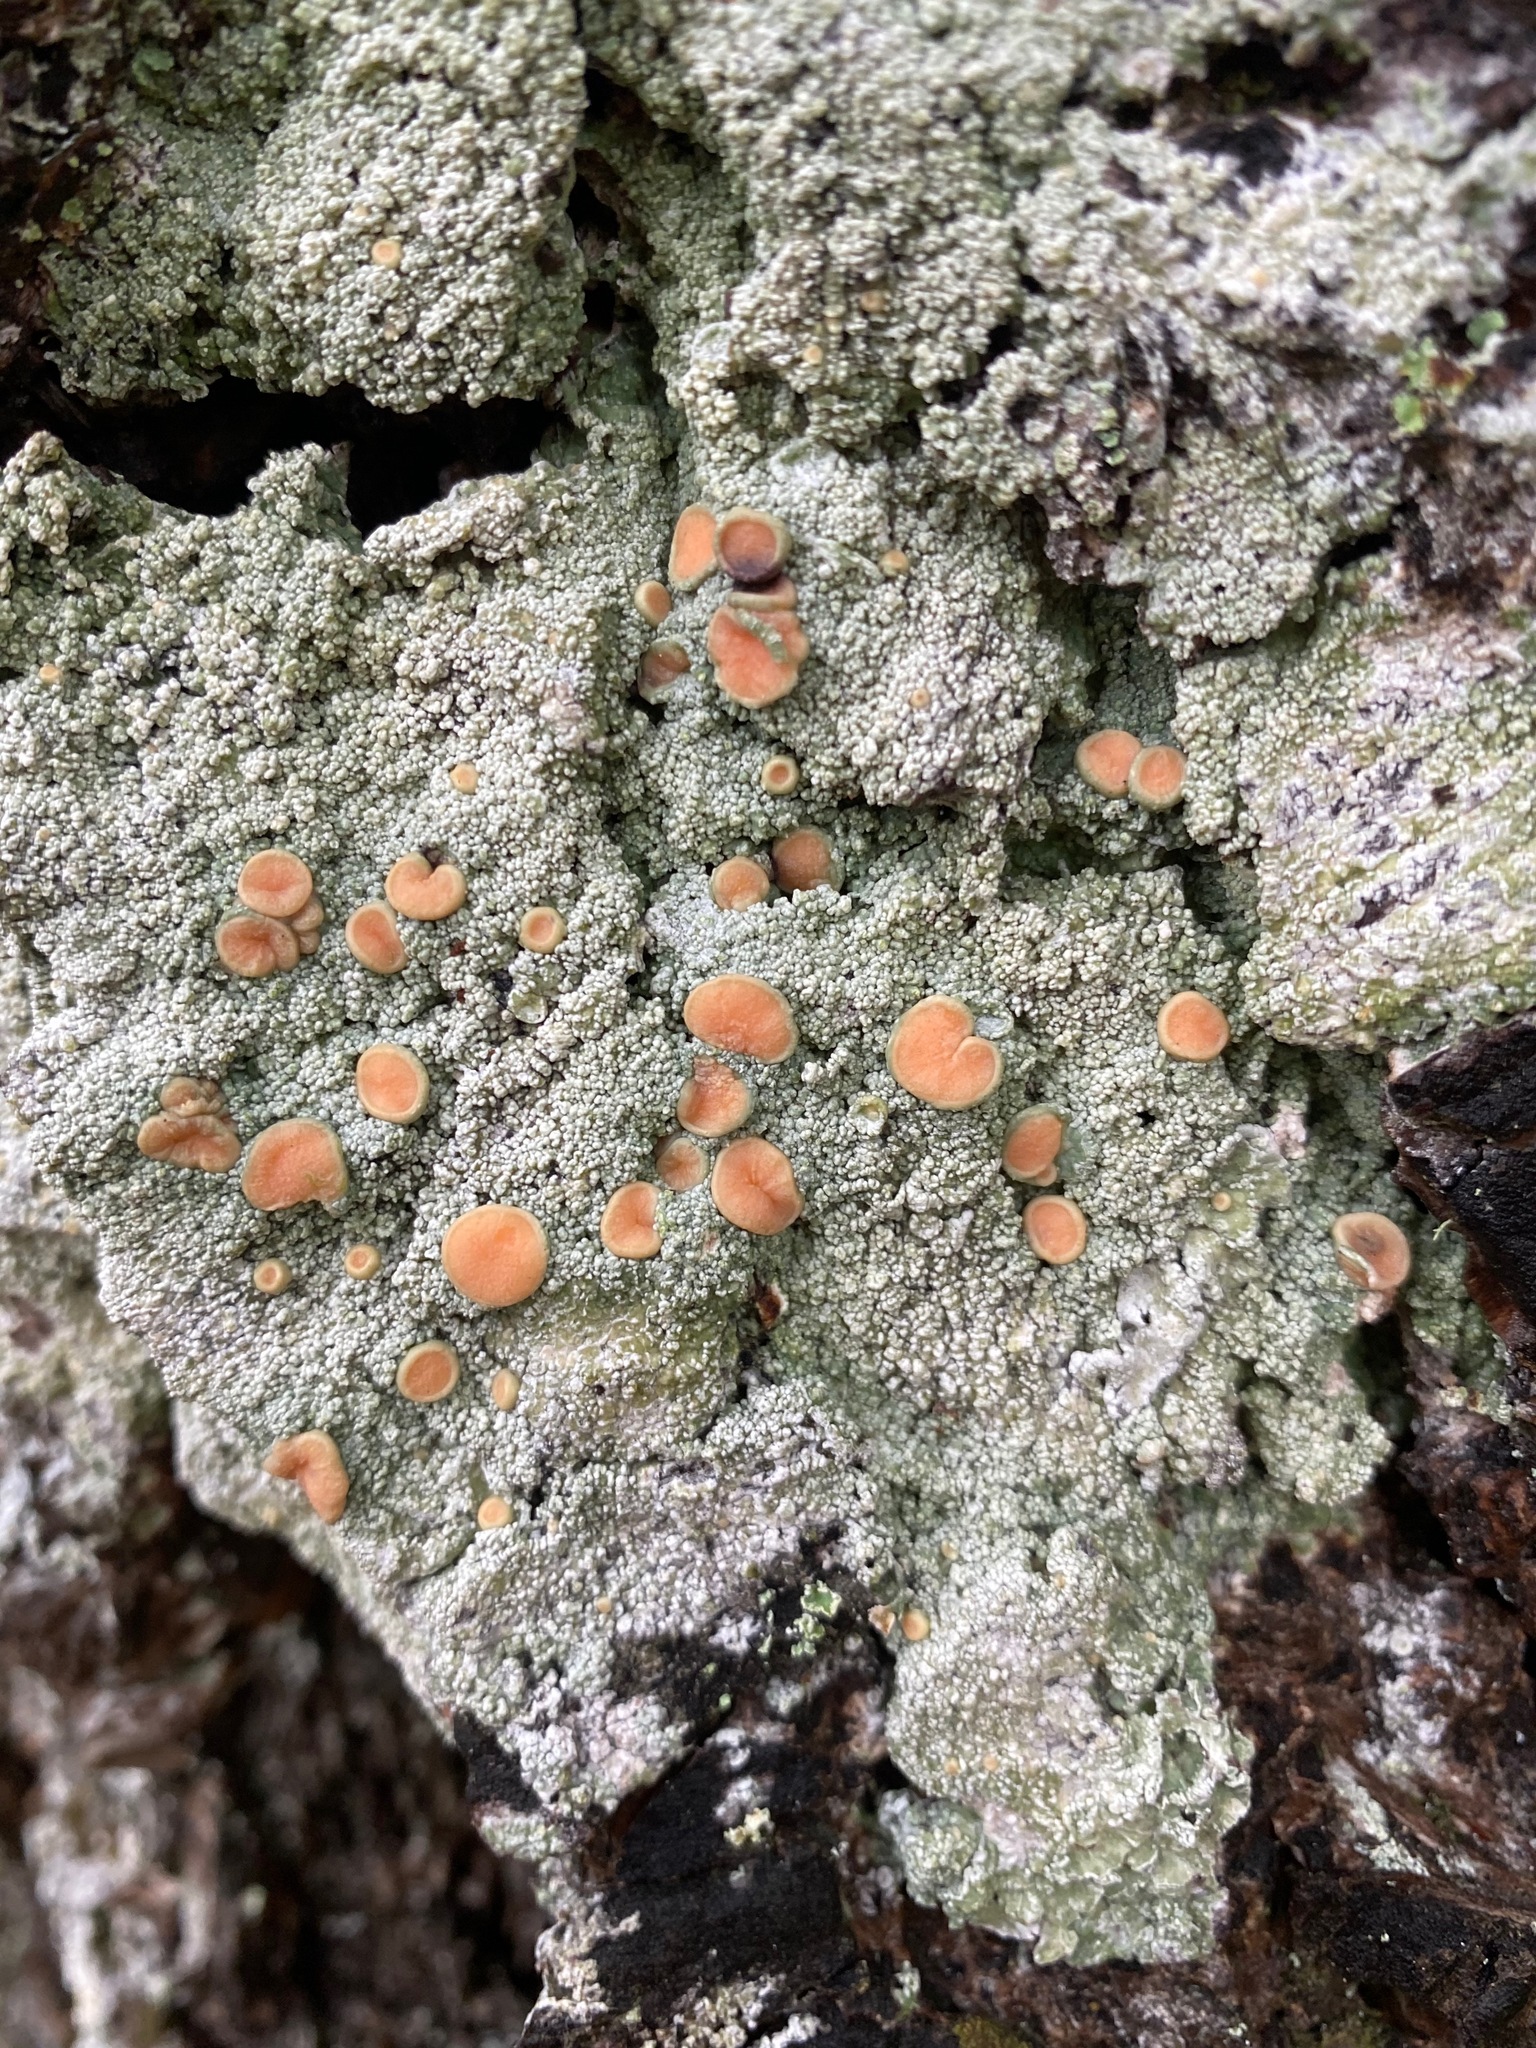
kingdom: Fungi
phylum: Ascomycota
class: Lecanoromycetes
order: Pertusariales
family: Icmadophilaceae
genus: Icmadophila
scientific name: Icmadophila ericetorum
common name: Candy lichen
